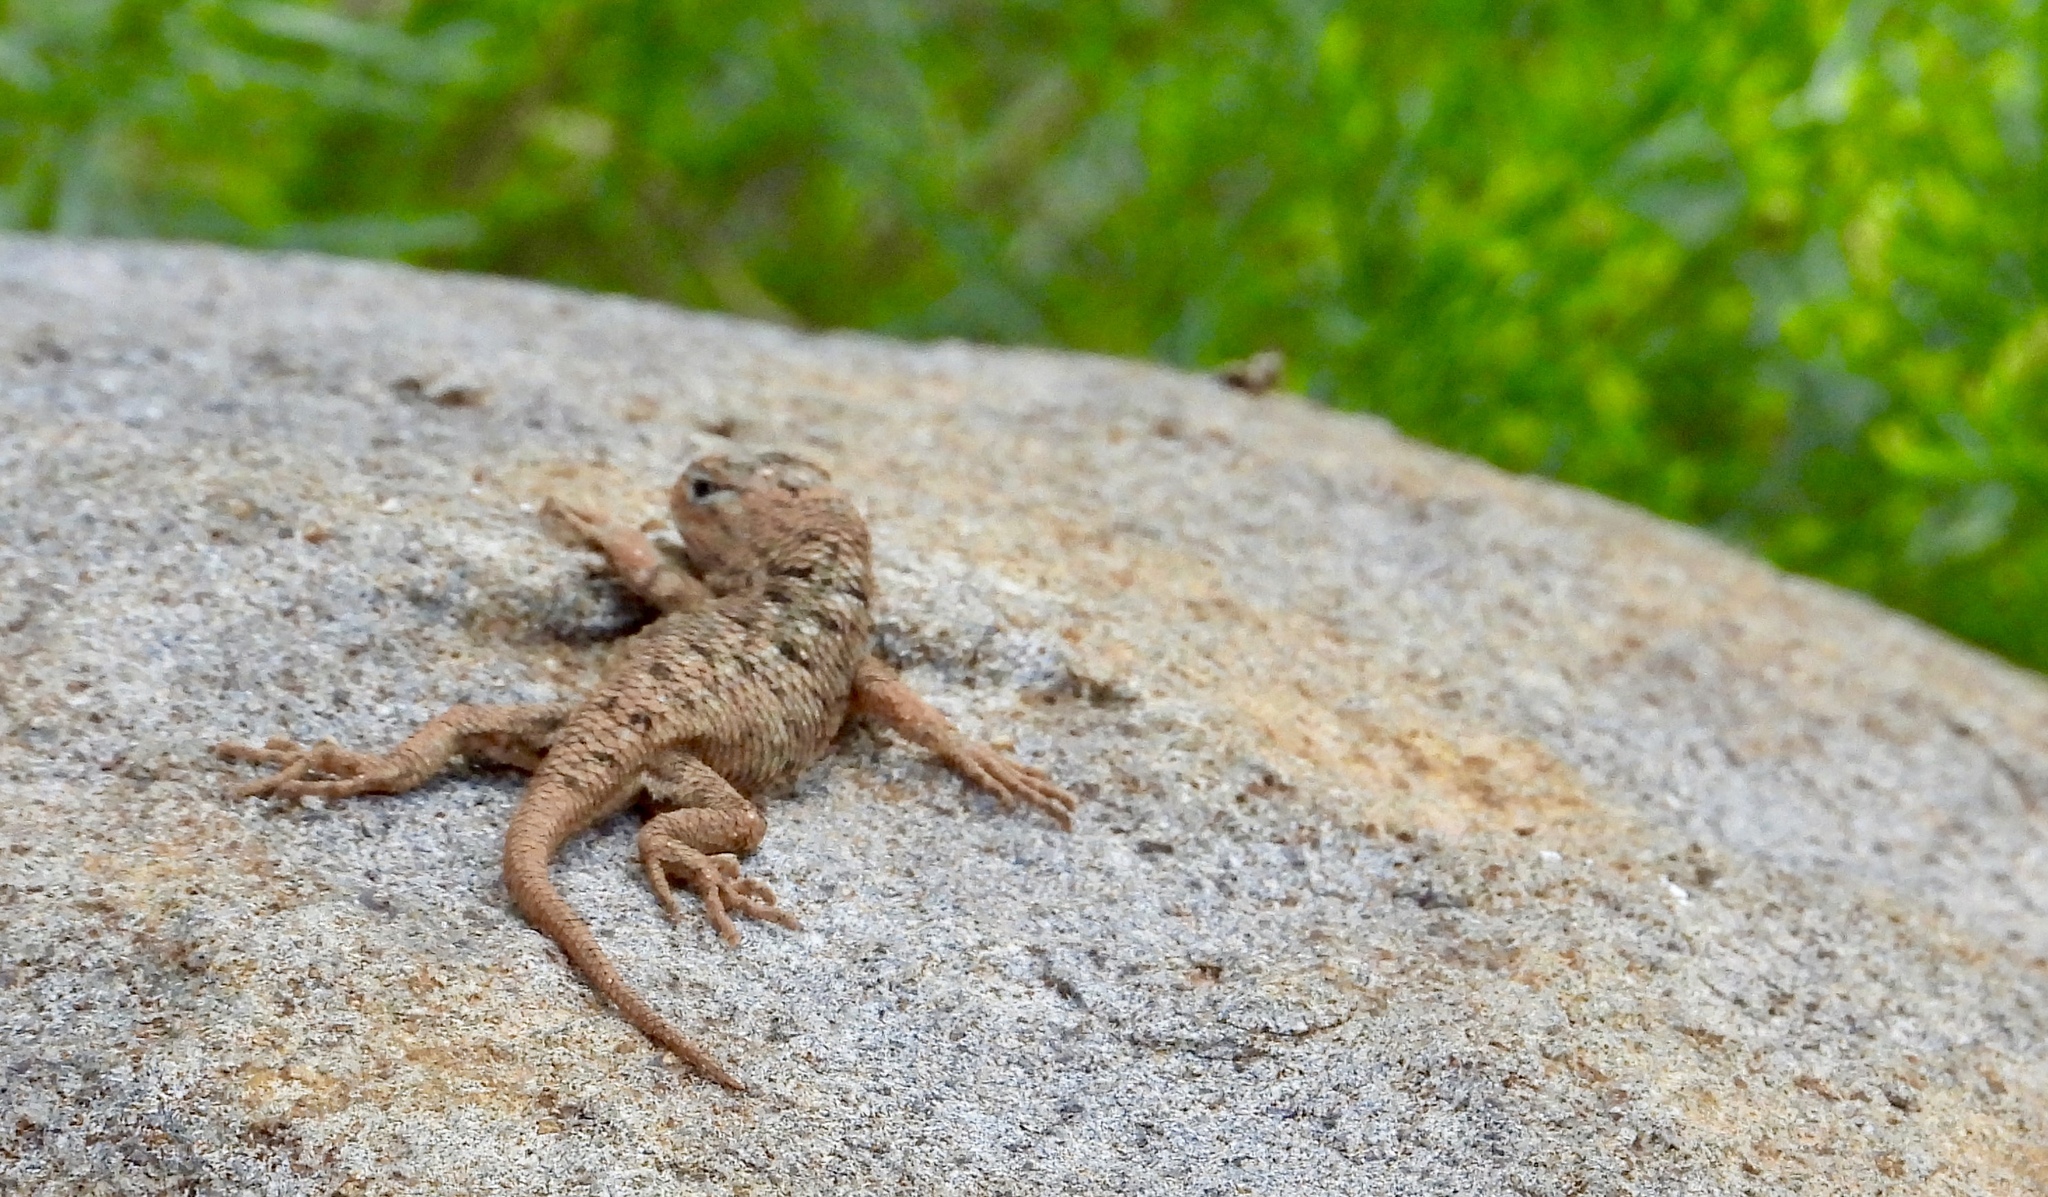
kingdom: Animalia
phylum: Chordata
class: Squamata
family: Phrynosomatidae
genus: Sceloporus
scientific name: Sceloporus clarkii
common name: Clark's spiny lizard
